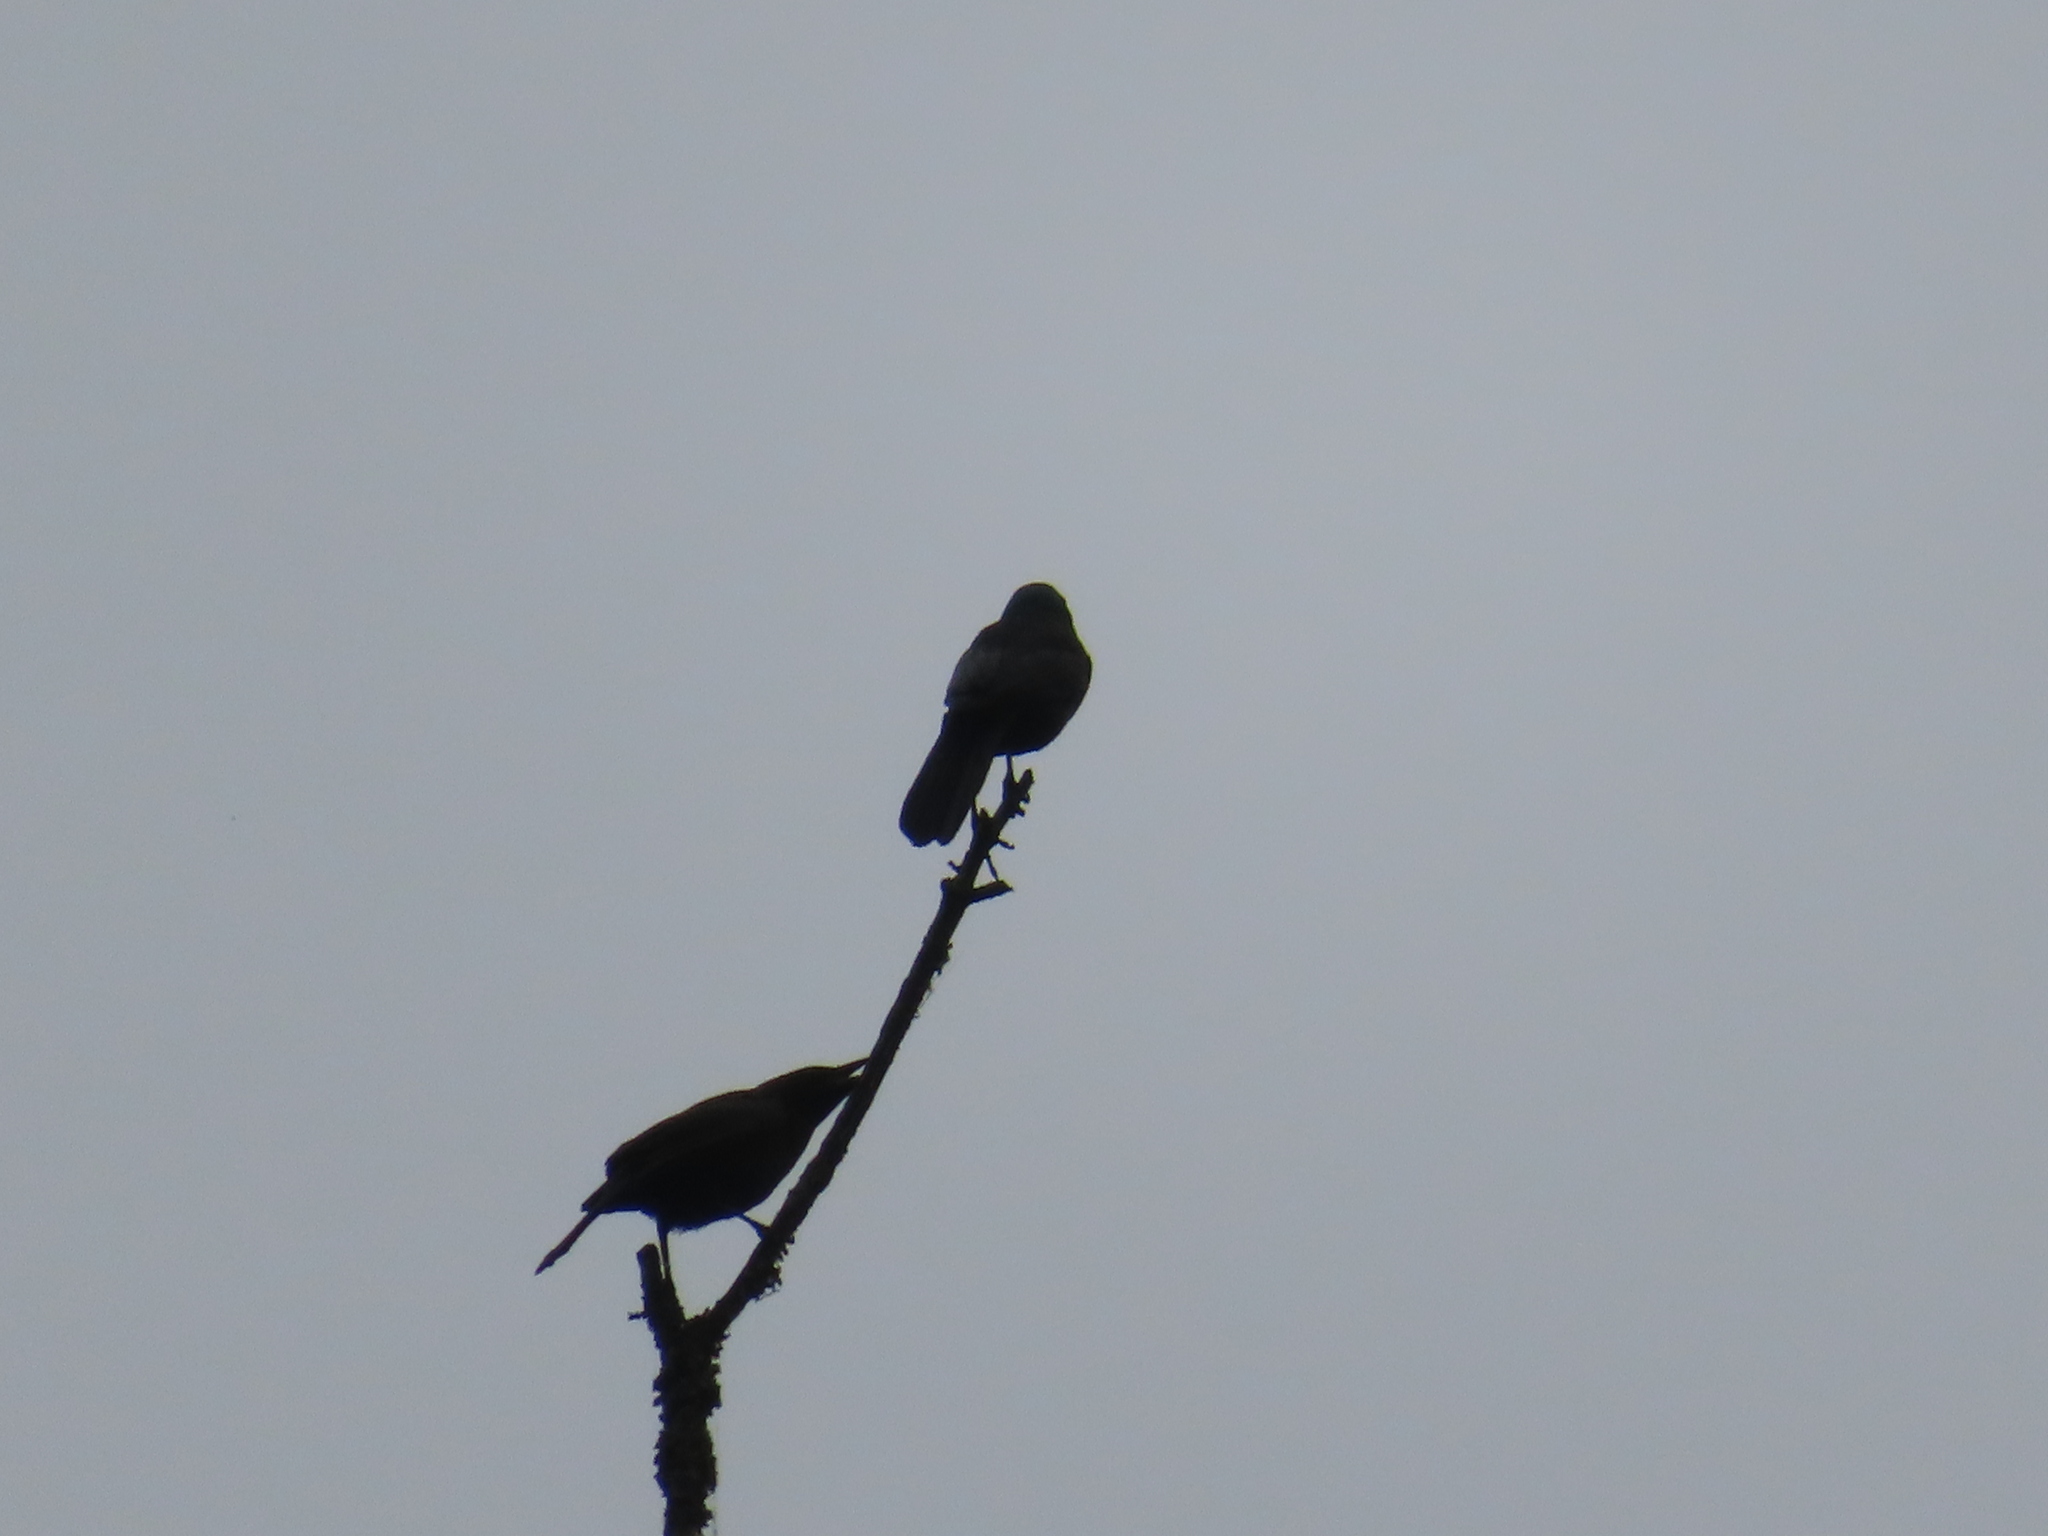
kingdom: Animalia
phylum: Chordata
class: Aves
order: Passeriformes
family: Icteridae
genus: Quiscalus
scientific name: Quiscalus quiscula
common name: Common grackle
